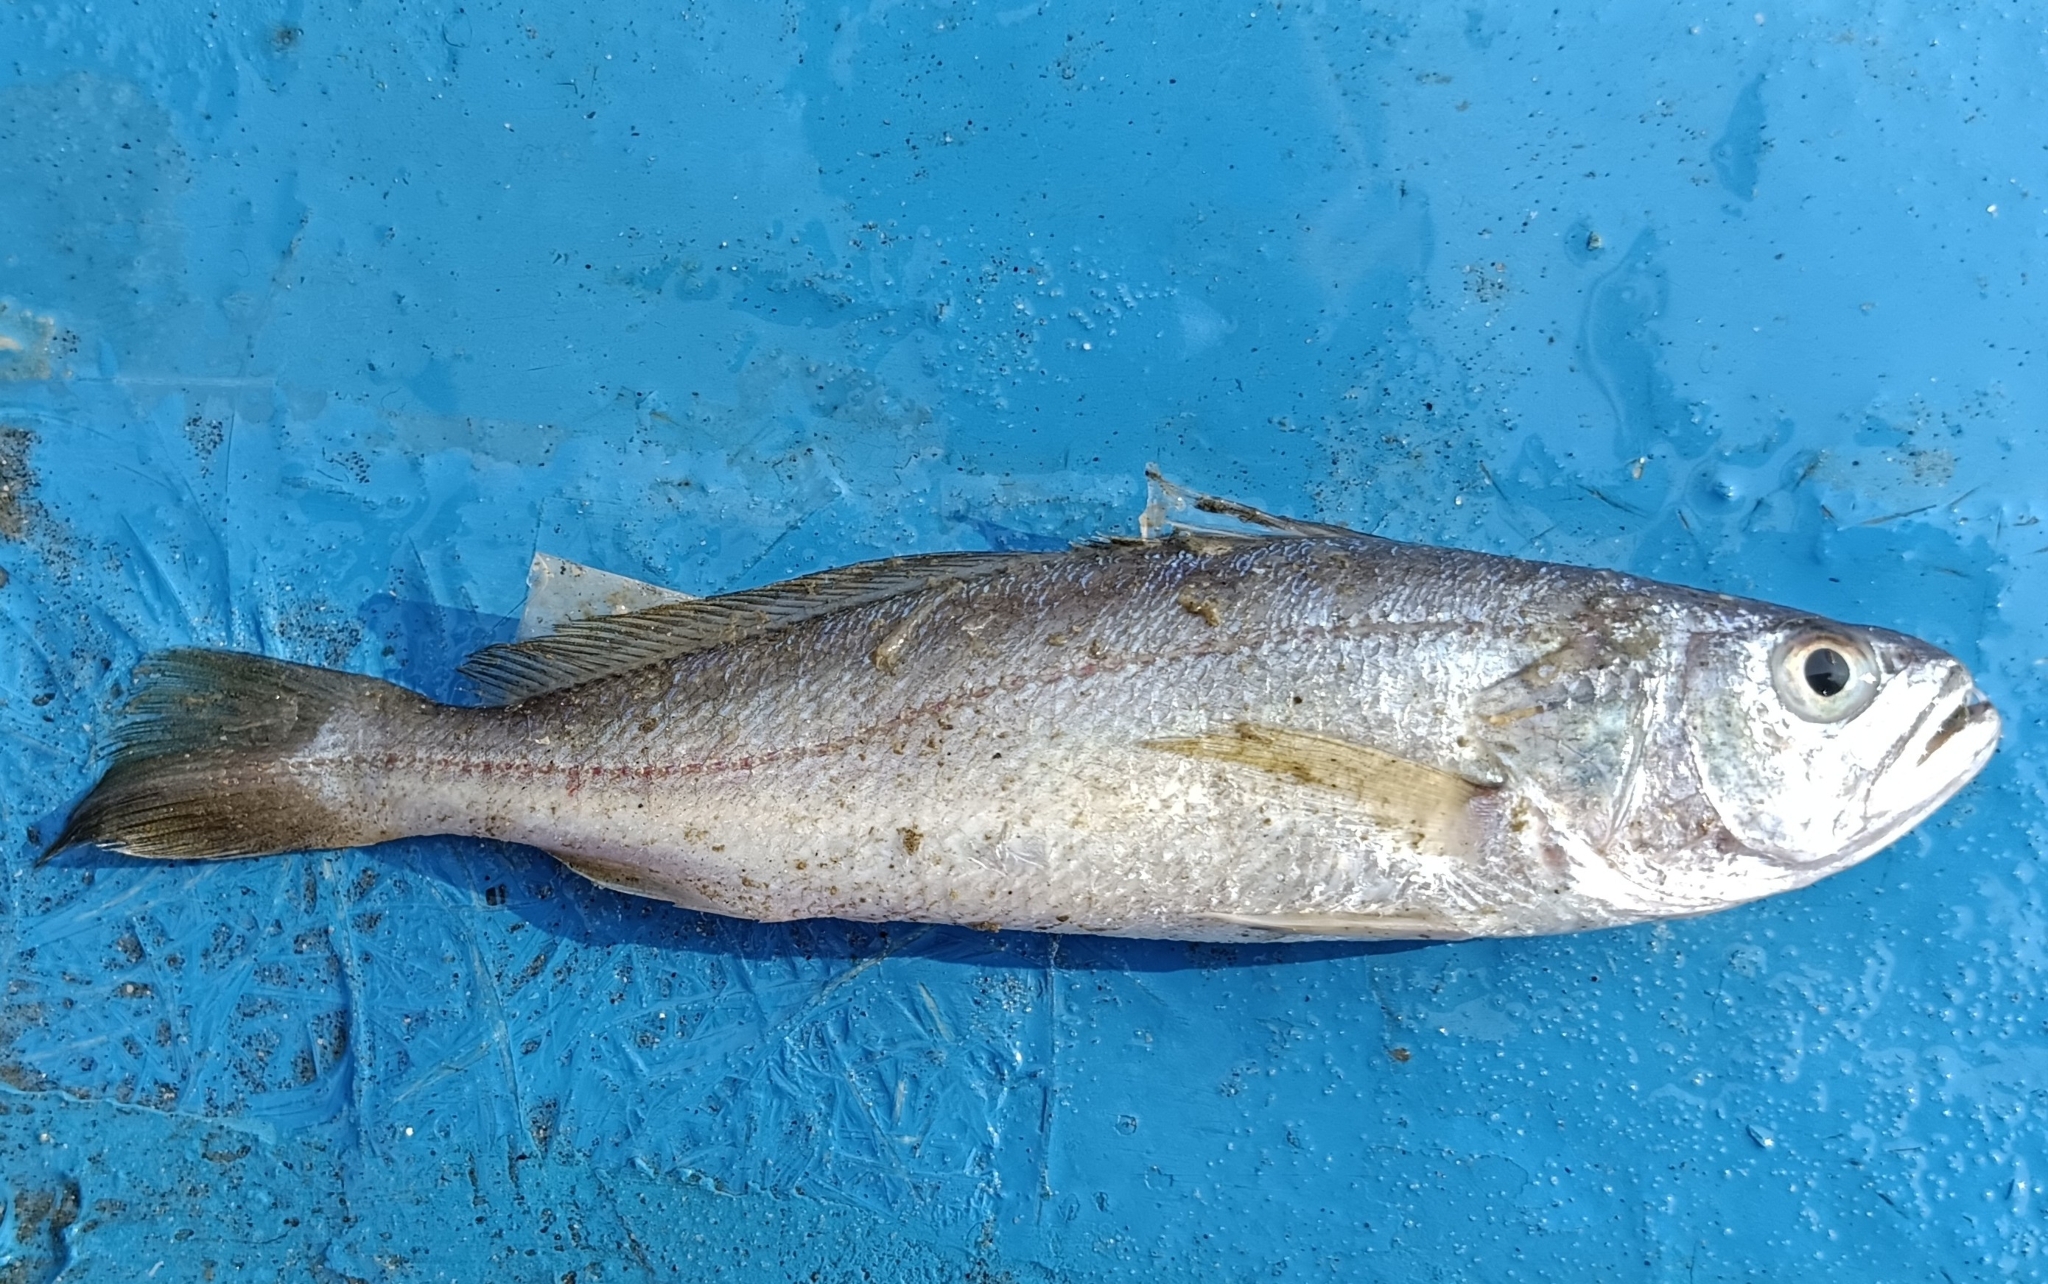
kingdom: Animalia
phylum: Chordata
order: Perciformes
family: Sciaenidae
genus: Otolithes
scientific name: Otolithes ruber
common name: Croaker
